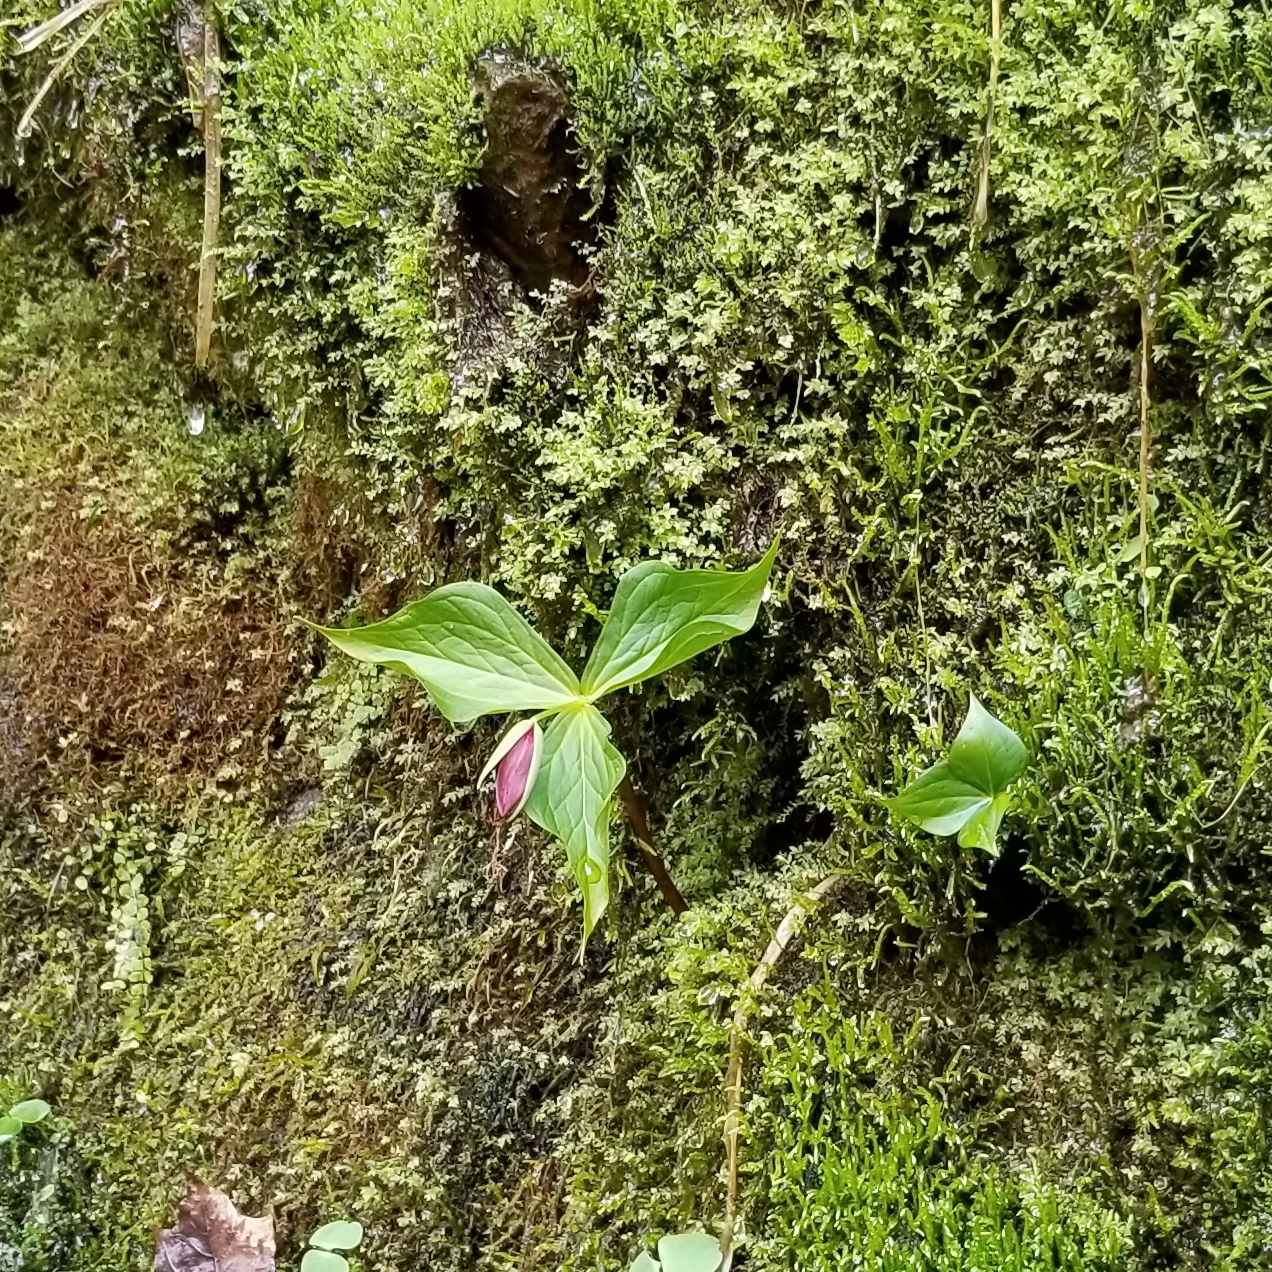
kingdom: Plantae
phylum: Tracheophyta
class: Liliopsida
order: Liliales
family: Melanthiaceae
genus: Trillium
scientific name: Trillium erectum
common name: Purple trillium
